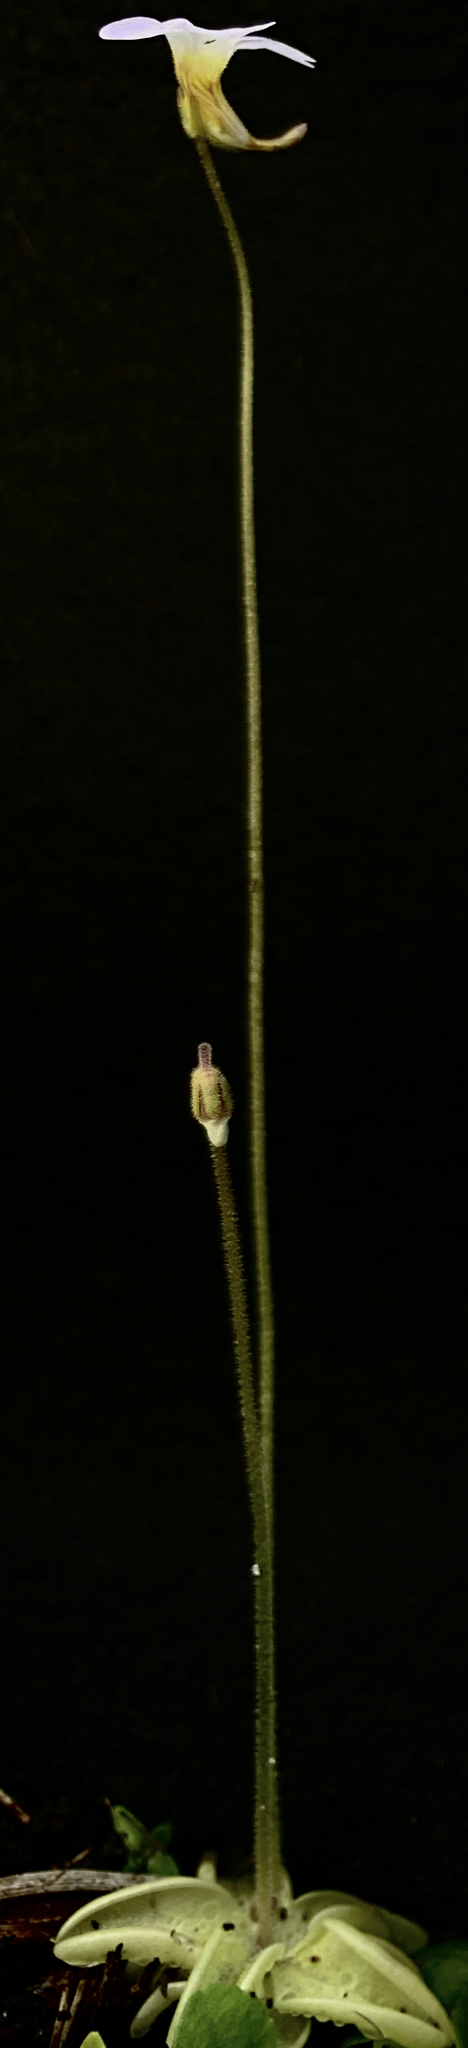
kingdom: Plantae
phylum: Tracheophyta
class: Magnoliopsida
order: Lamiales
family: Lentibulariaceae
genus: Pinguicula
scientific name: Pinguicula pumila
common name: Small butterwort
